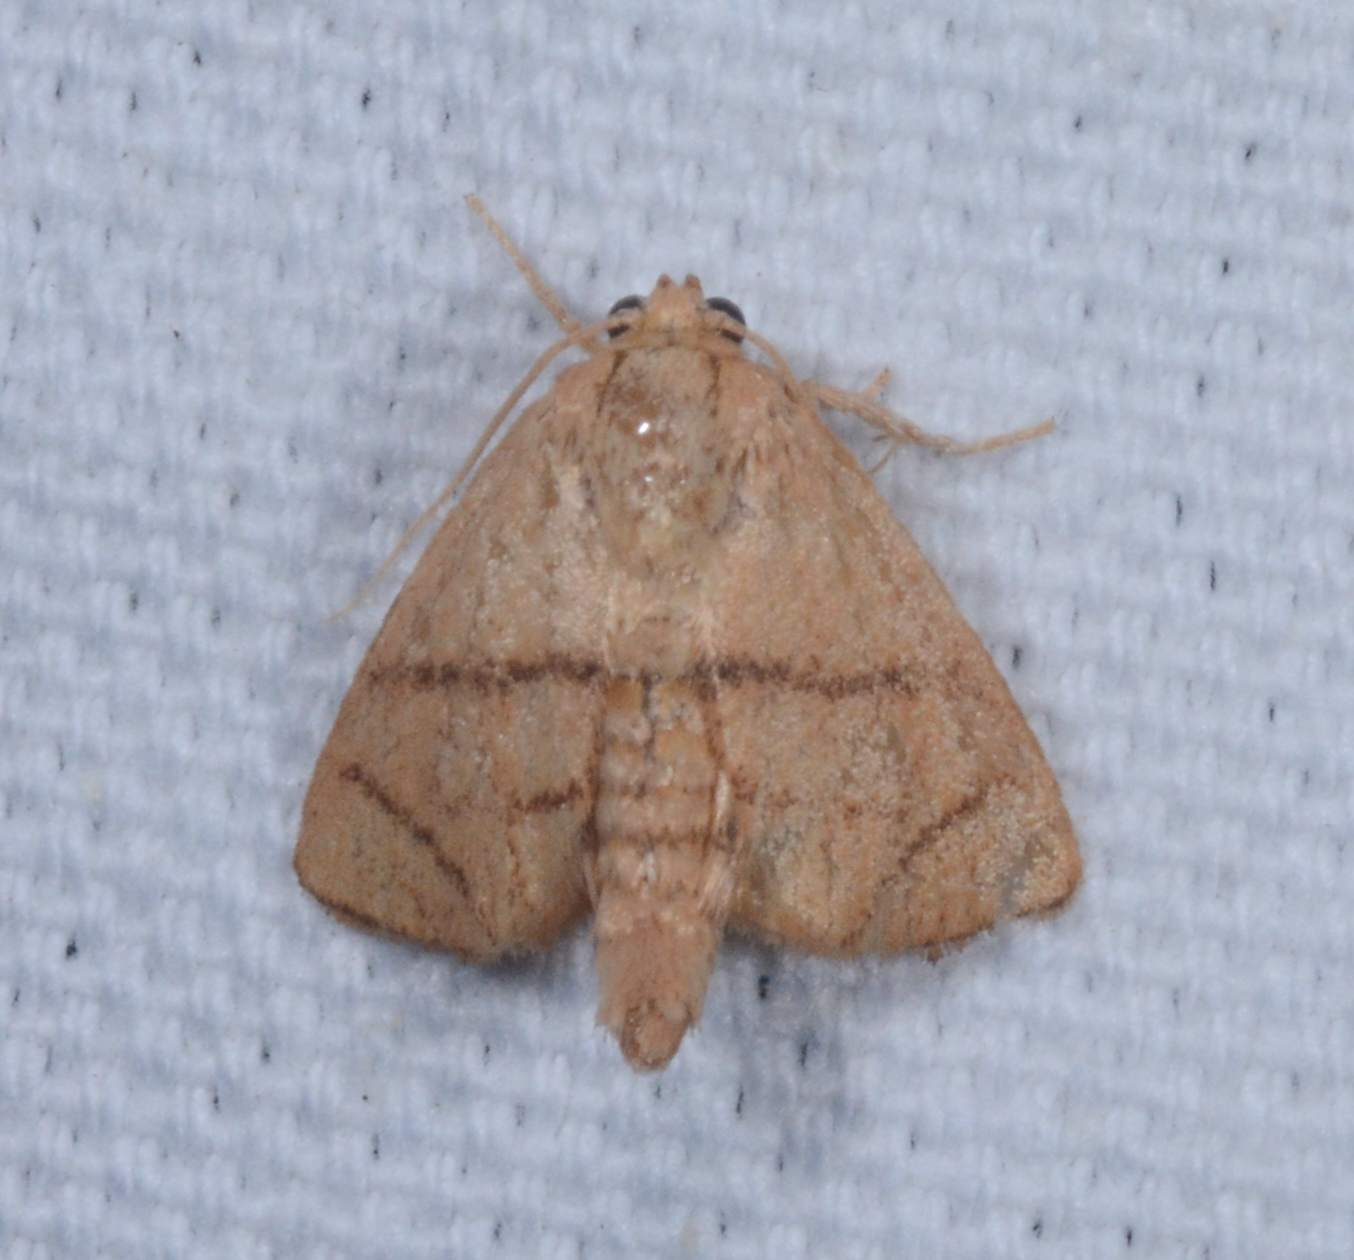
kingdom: Animalia
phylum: Arthropoda
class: Insecta
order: Lepidoptera
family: Limacodidae
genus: Apoda
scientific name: Apoda y-inversa
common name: Yellow-collared slug moth
